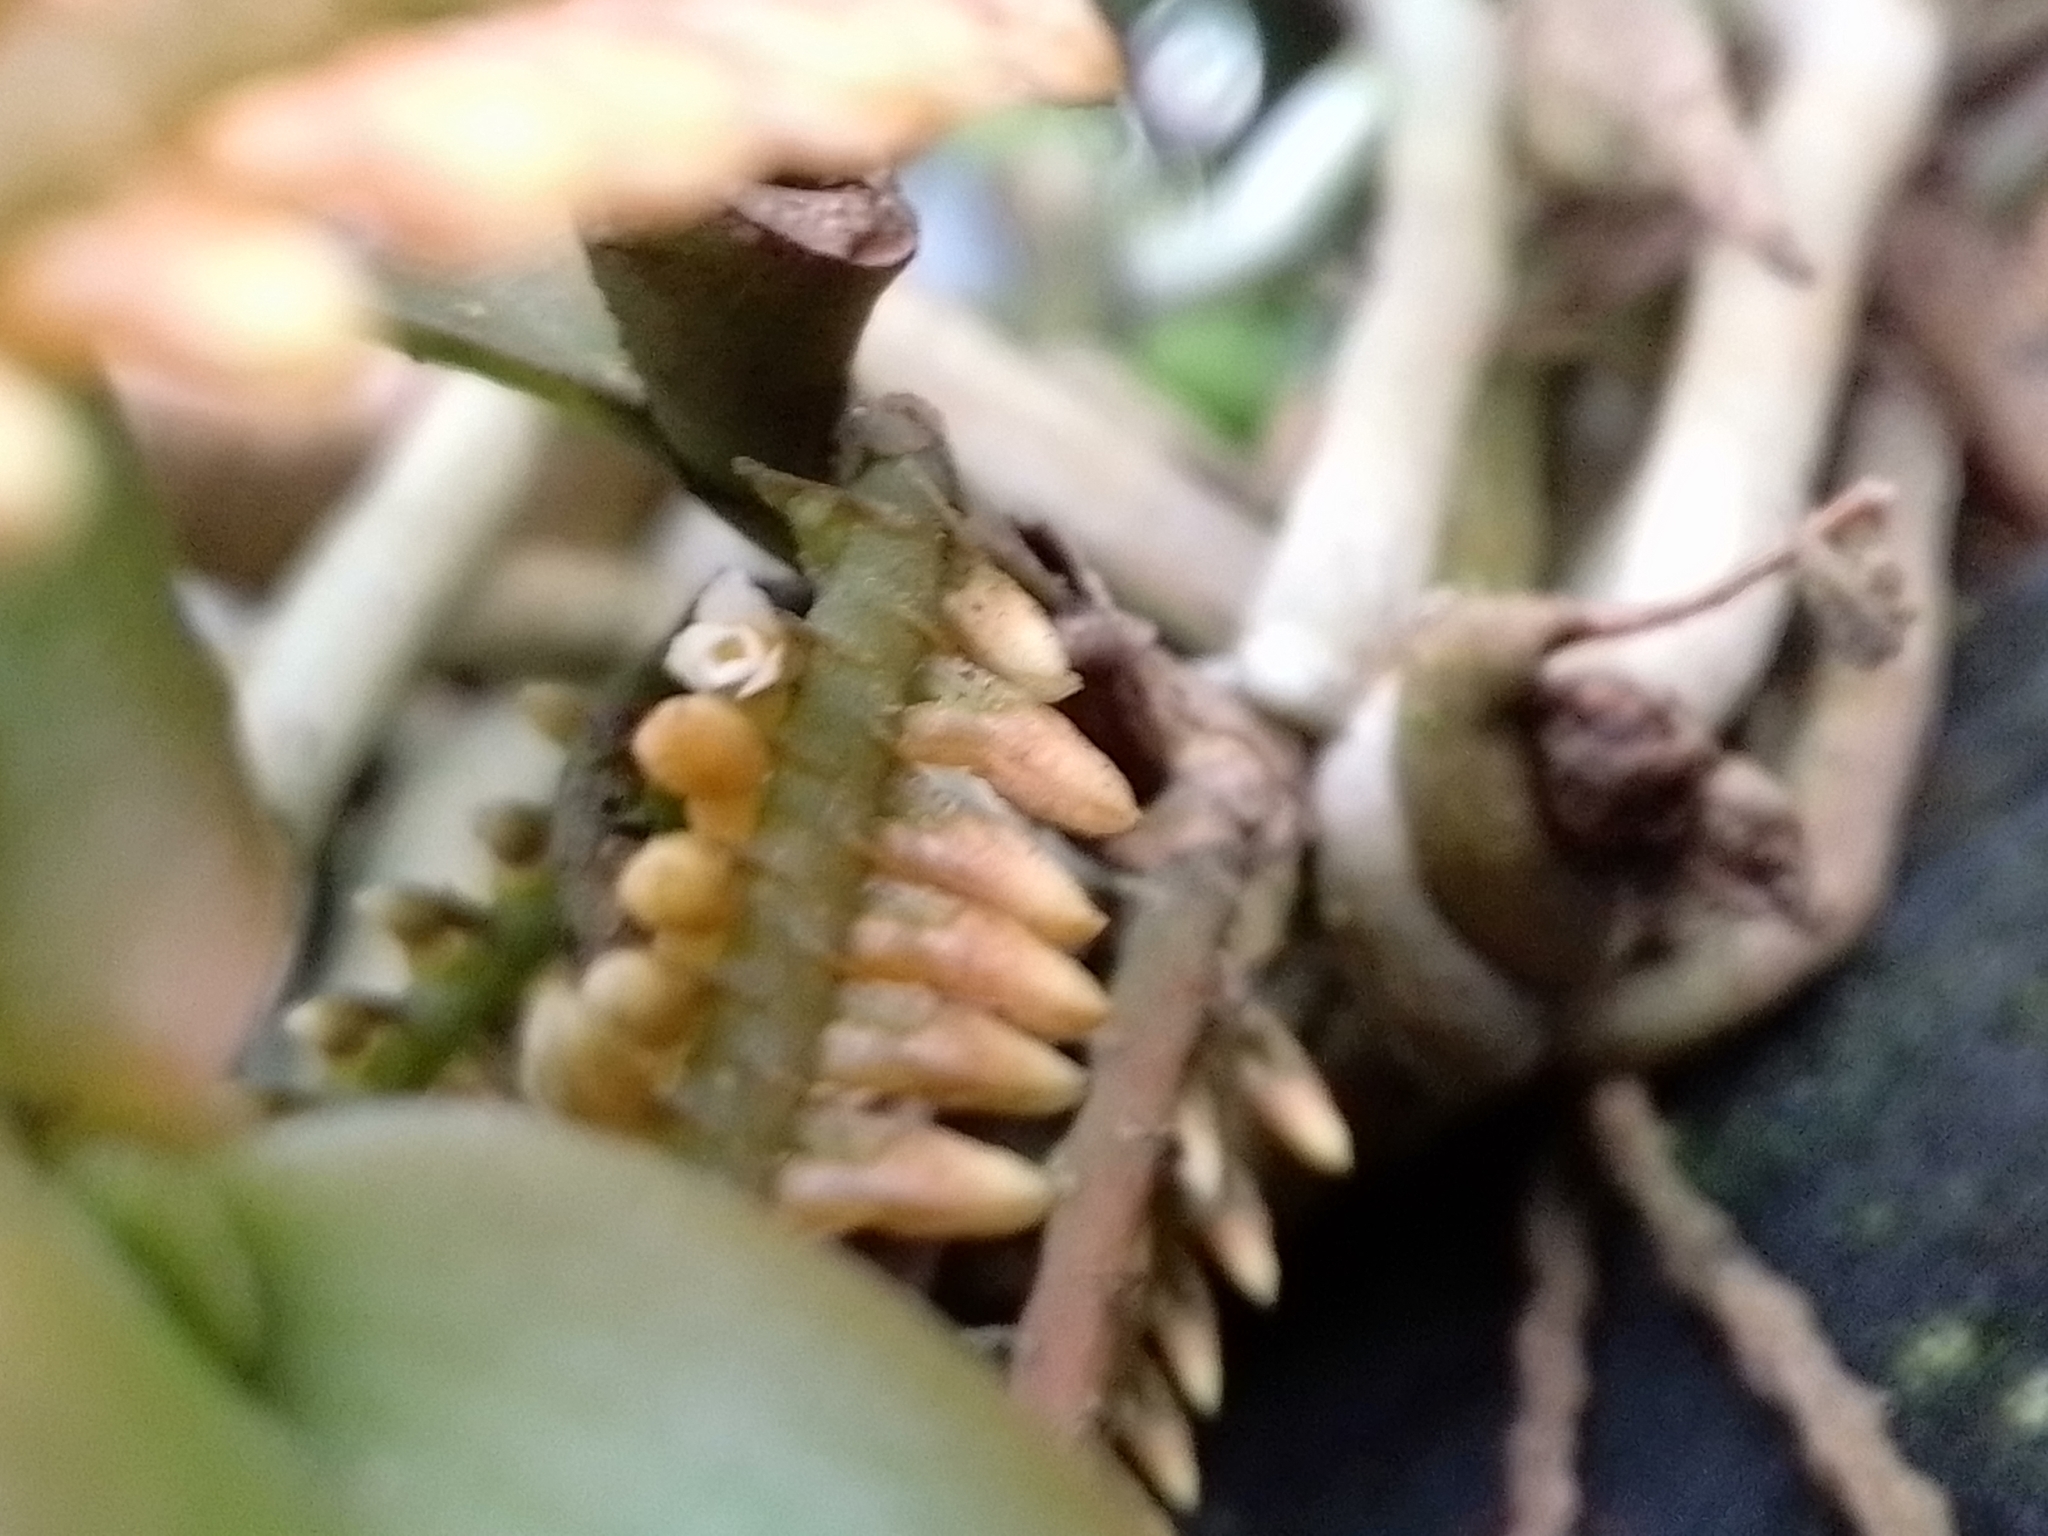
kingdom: Plantae
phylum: Tracheophyta
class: Liliopsida
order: Asparagales
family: Orchidaceae
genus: Campylocentrum
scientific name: Campylocentrum schiedei
